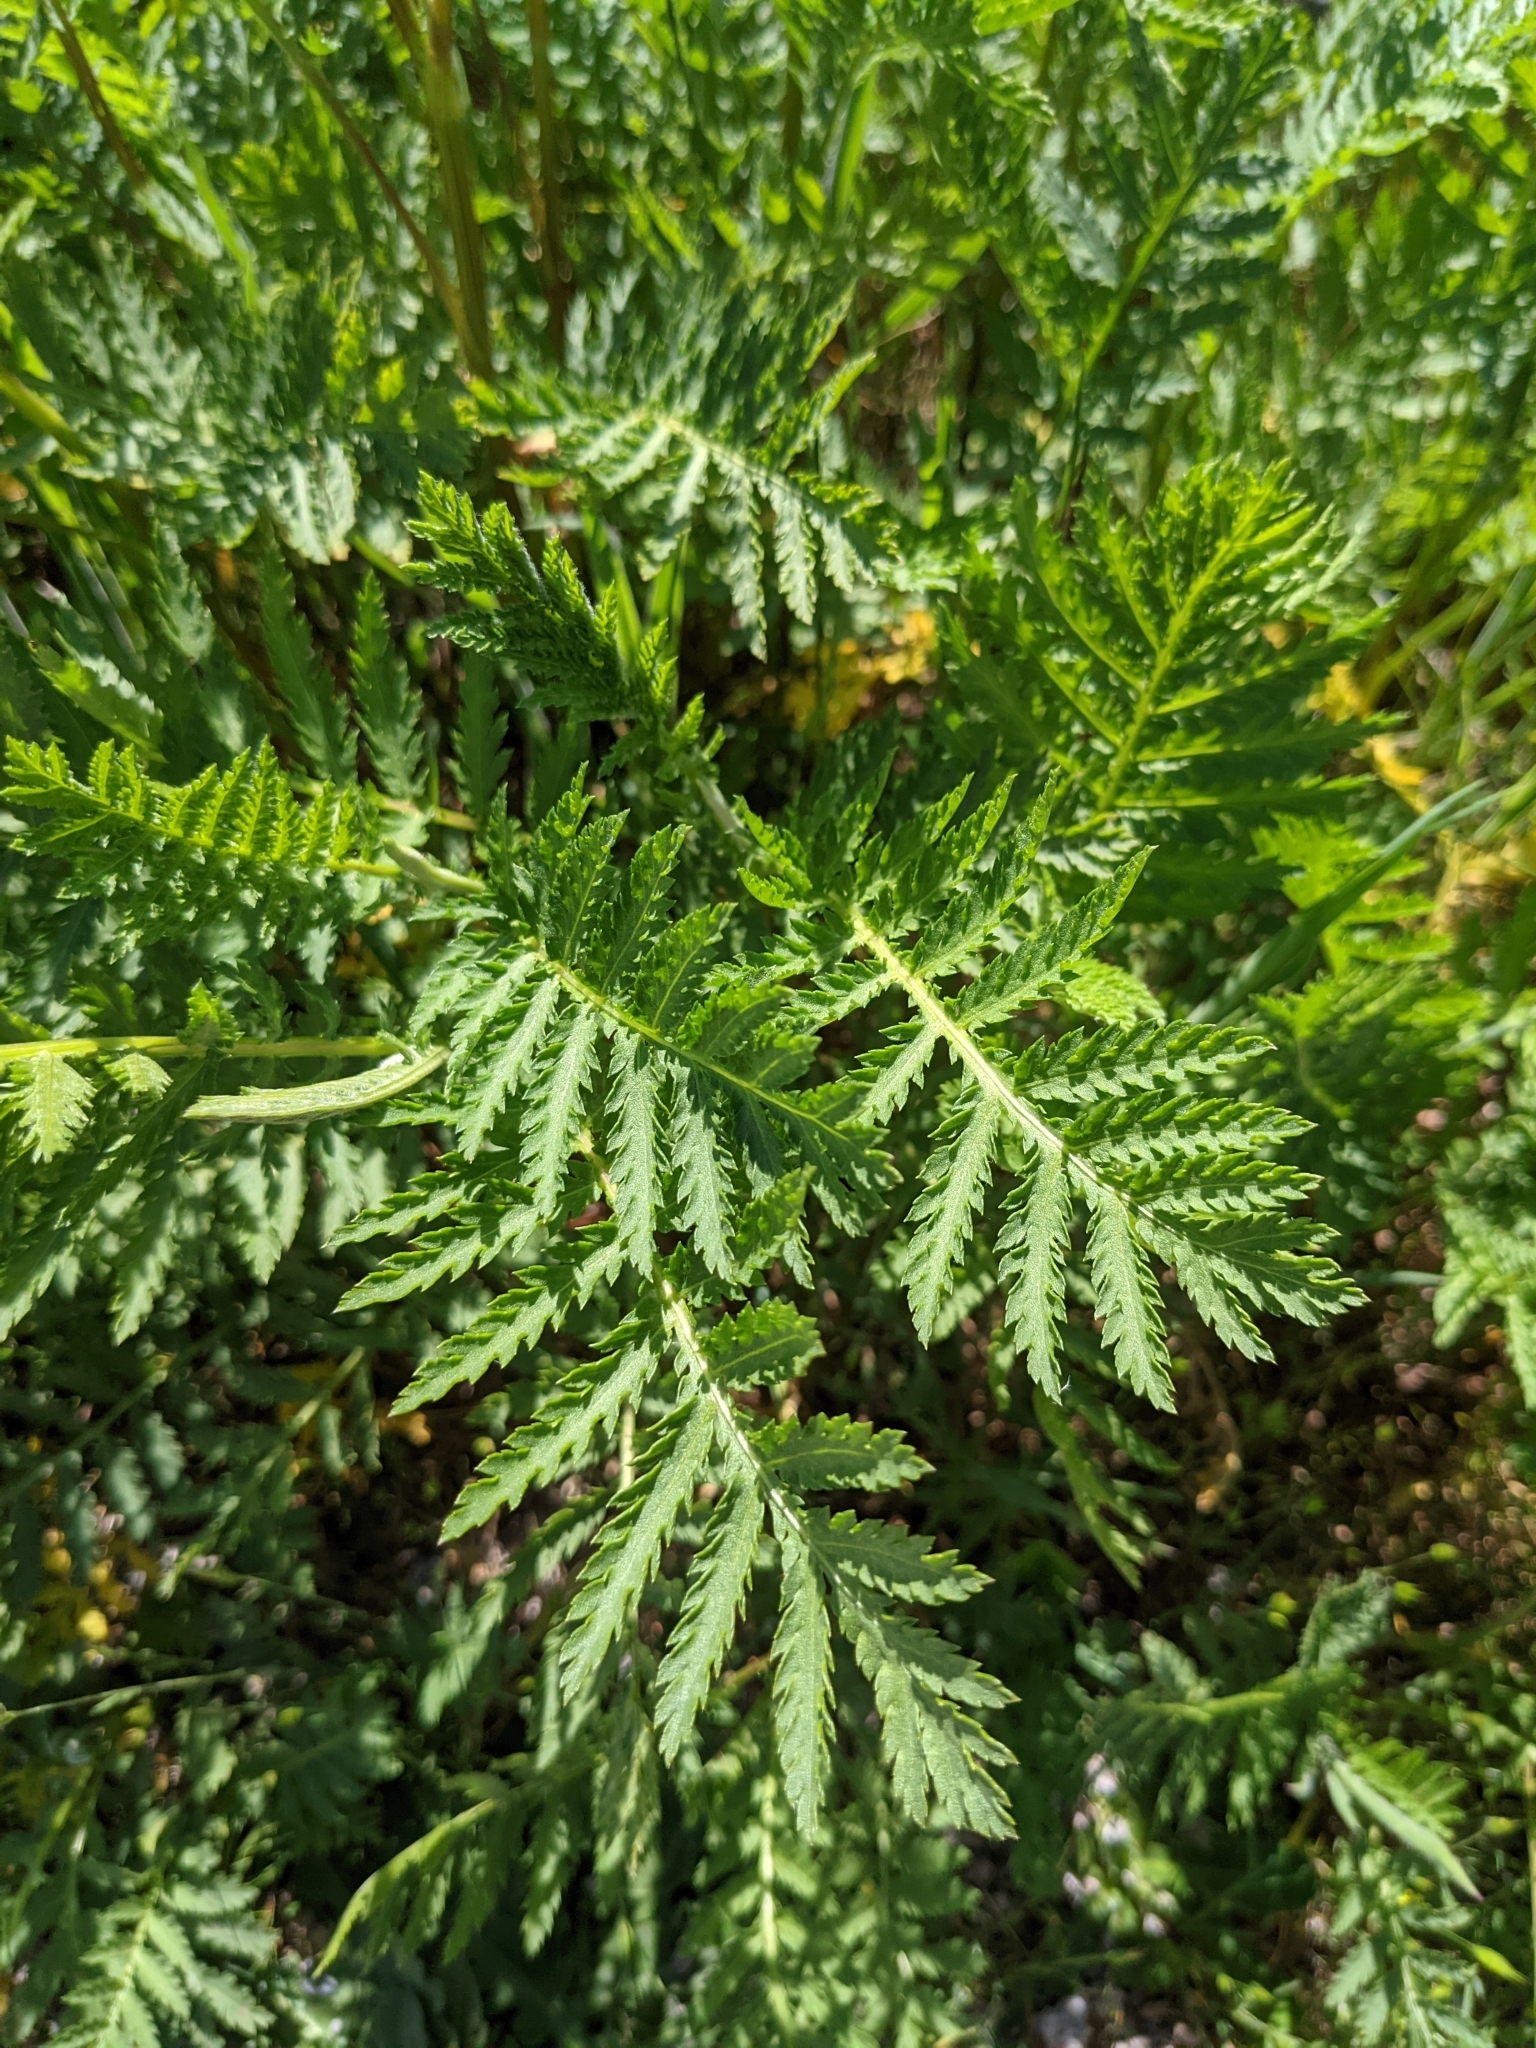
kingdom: Plantae
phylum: Tracheophyta
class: Magnoliopsida
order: Asterales
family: Asteraceae
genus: Tanacetum
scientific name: Tanacetum vulgare
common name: Common tansy
